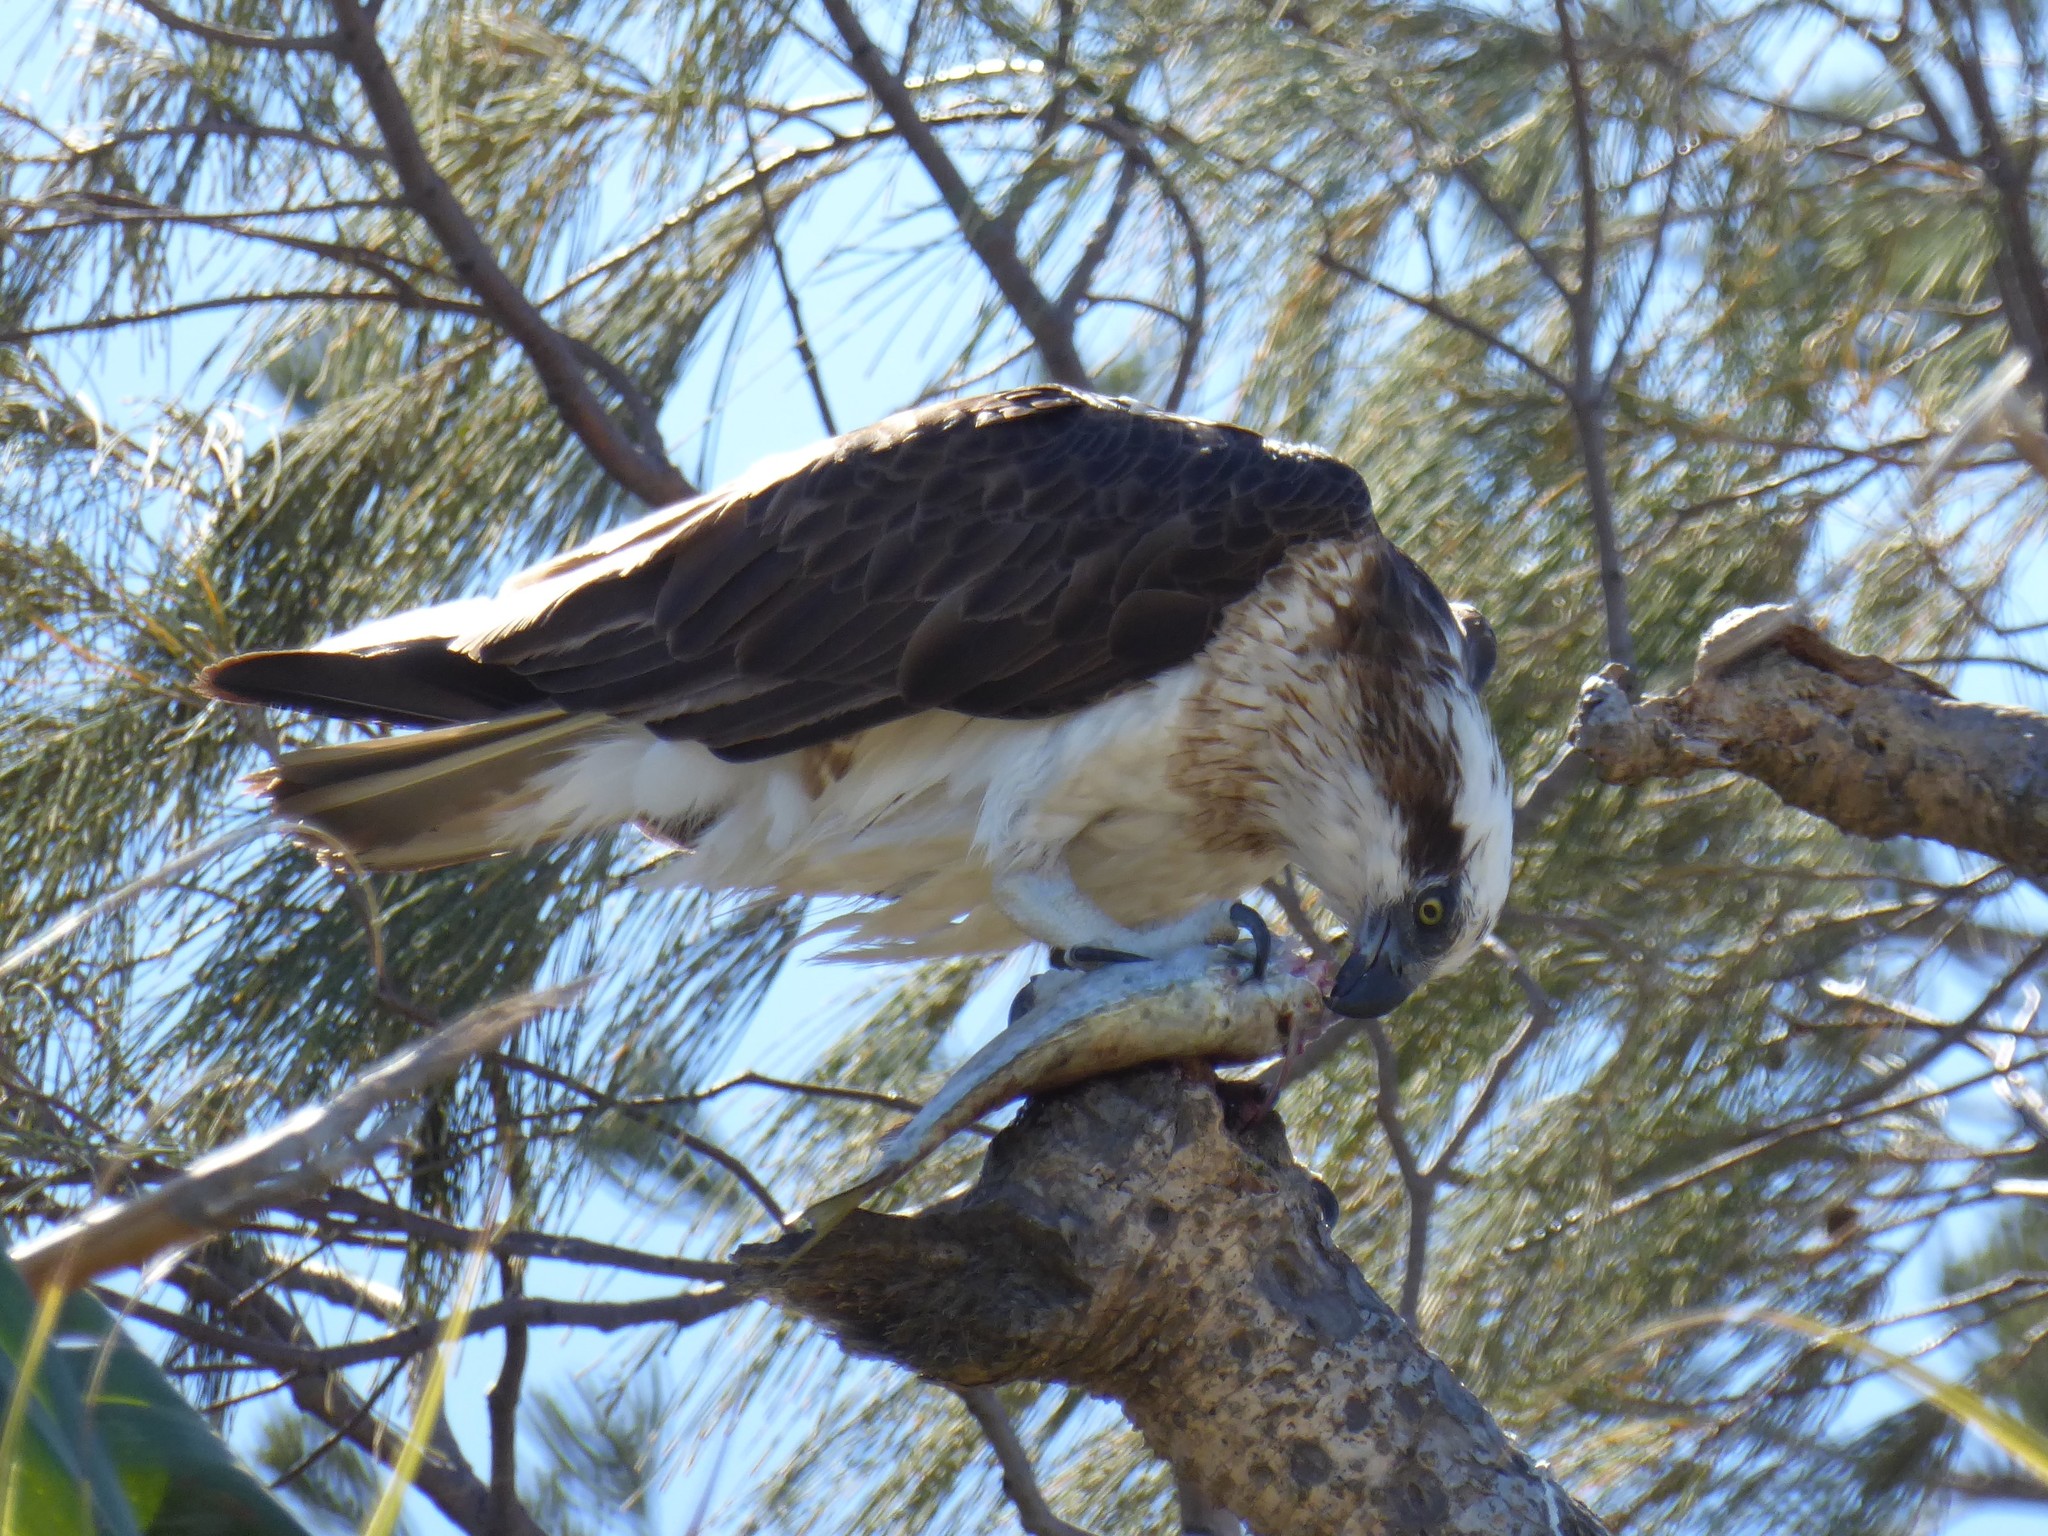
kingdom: Animalia
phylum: Chordata
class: Aves
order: Accipitriformes
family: Pandionidae
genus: Pandion
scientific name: Pandion haliaetus
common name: Osprey
